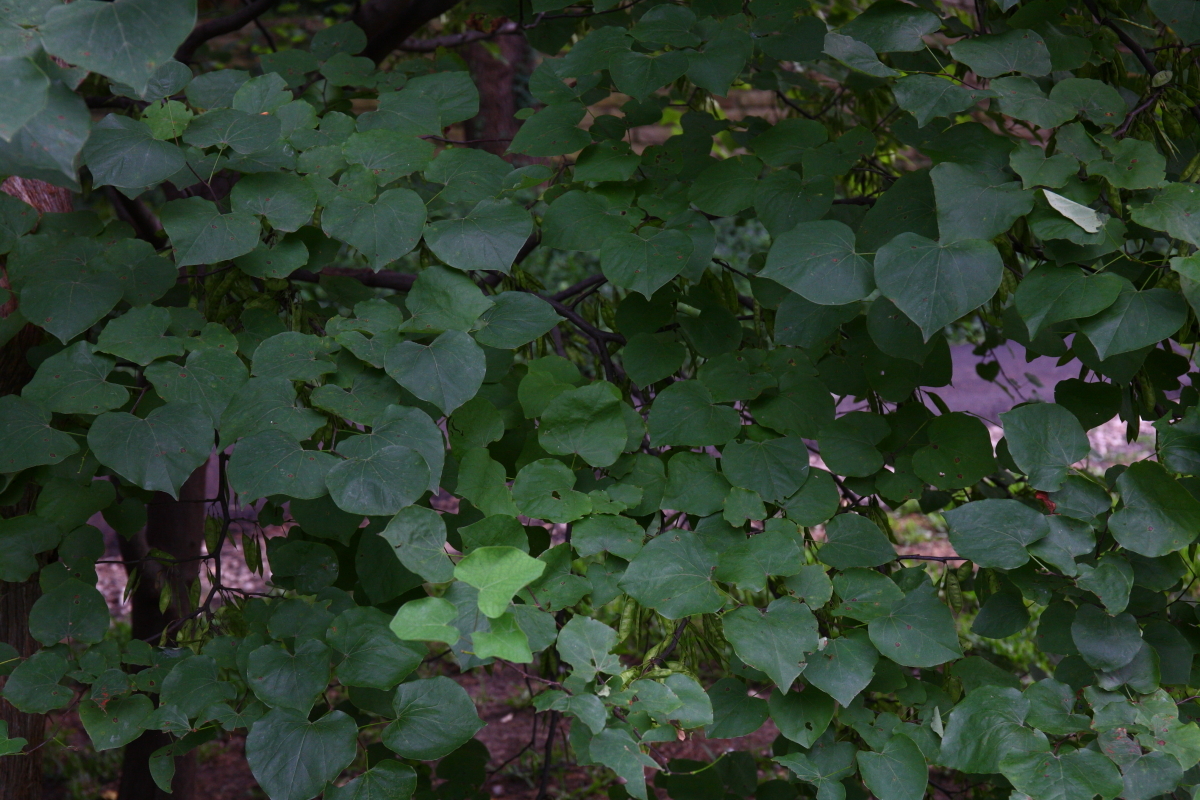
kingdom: Plantae
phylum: Tracheophyta
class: Magnoliopsida
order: Fabales
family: Fabaceae
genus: Cercis
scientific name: Cercis canadensis
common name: Eastern redbud
